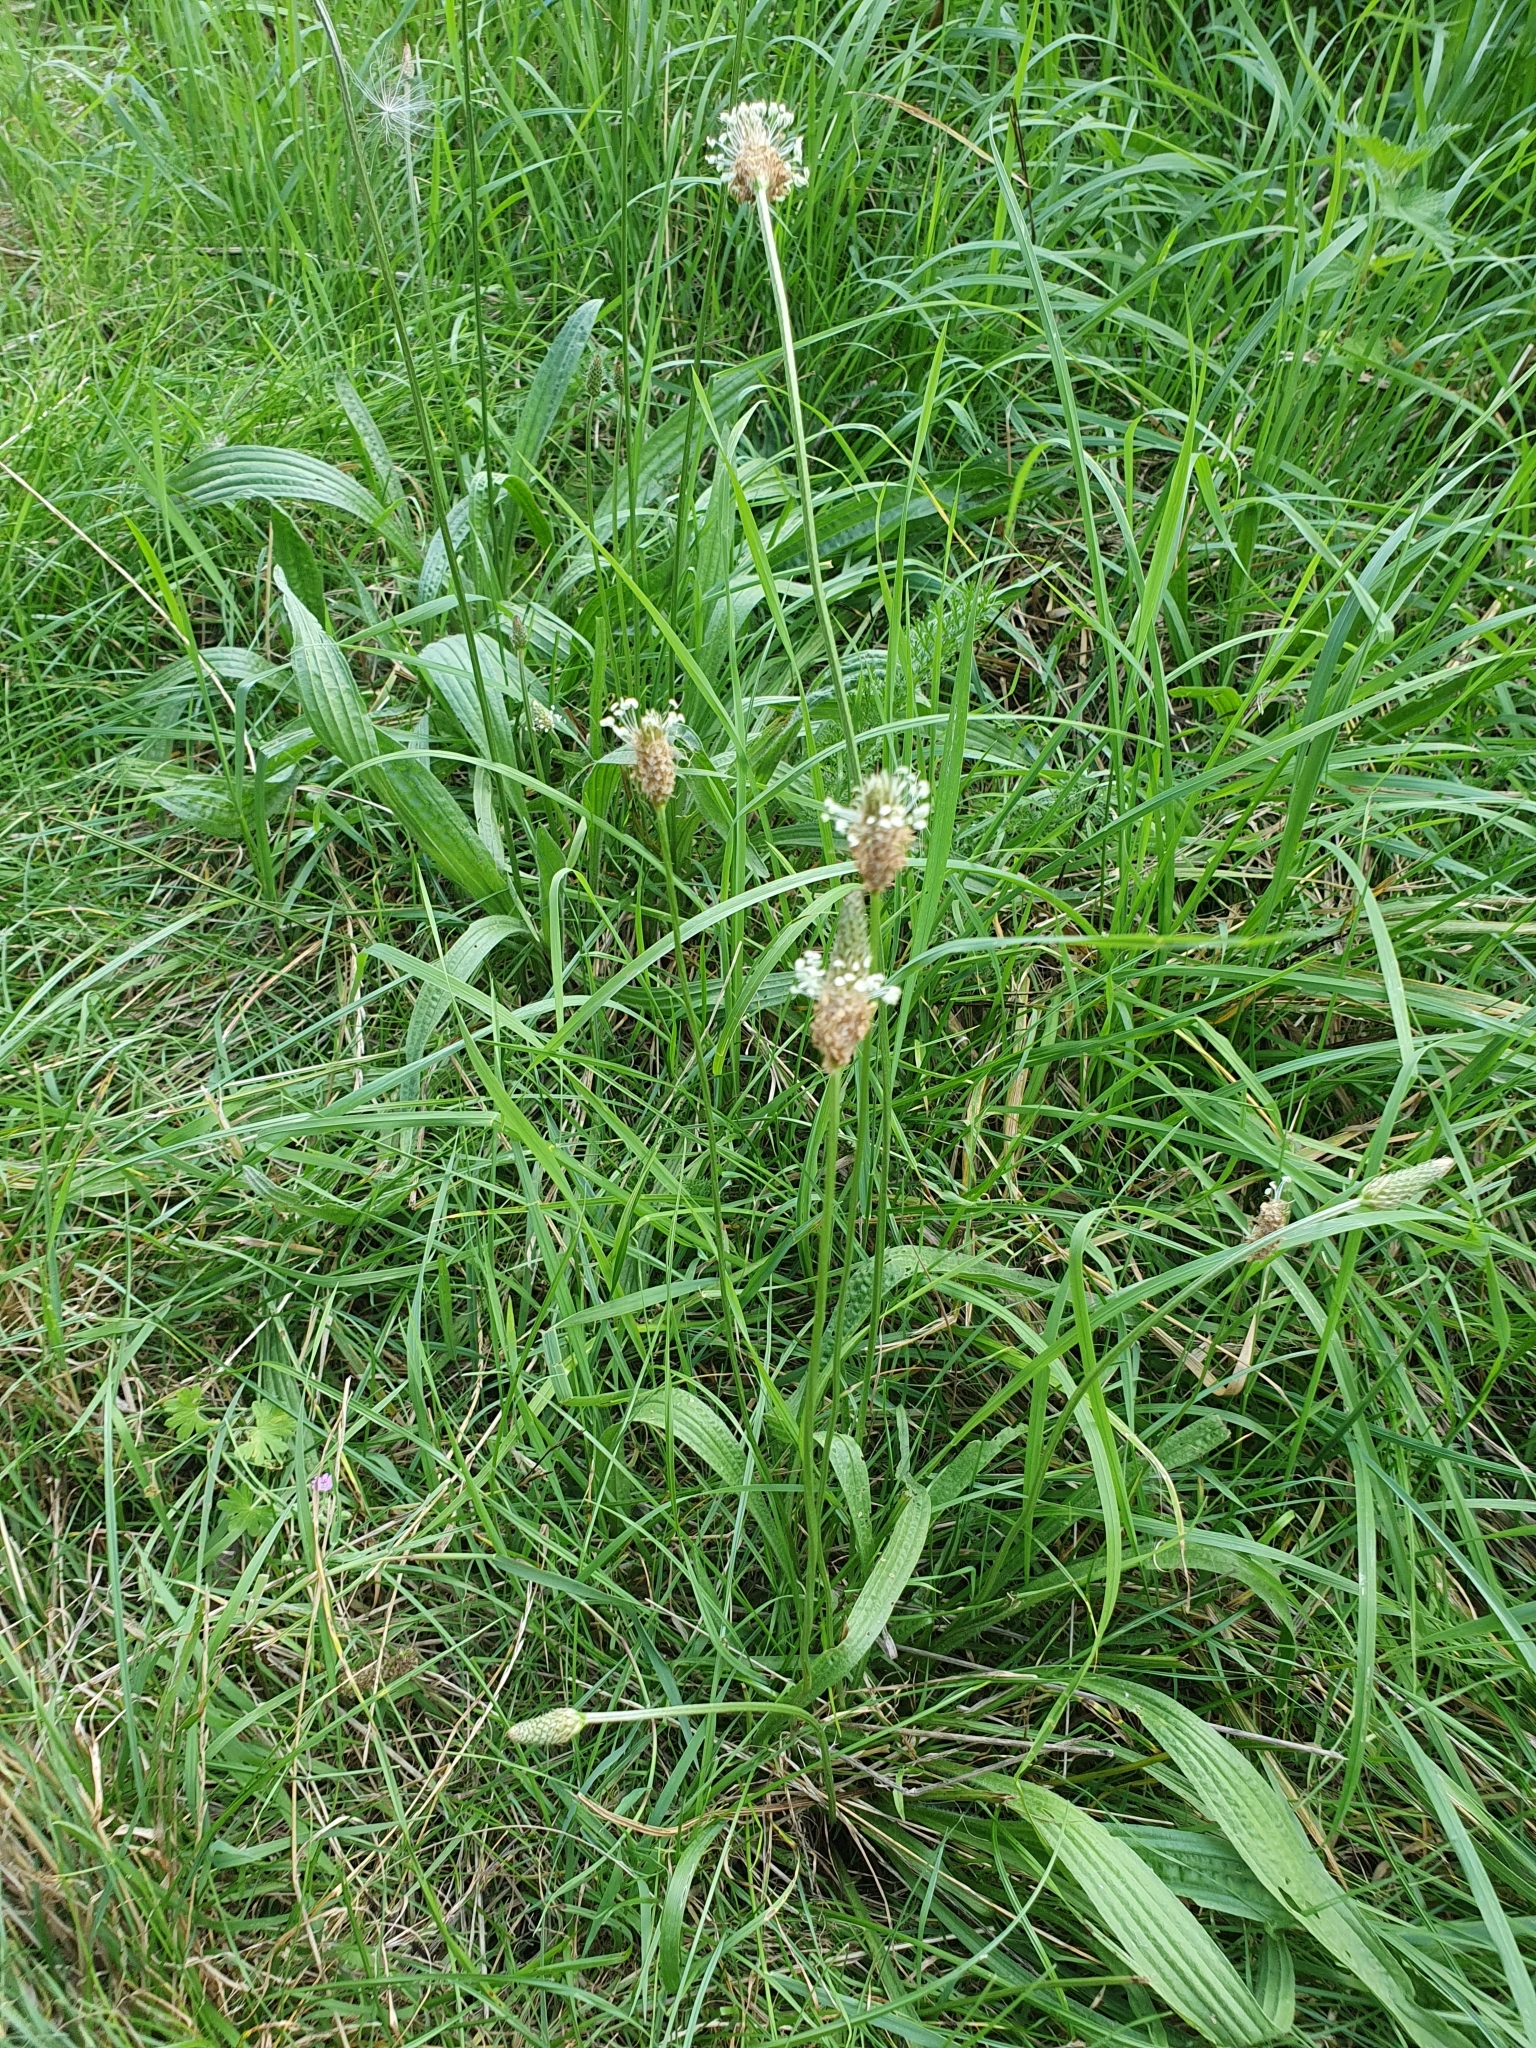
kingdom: Plantae
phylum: Tracheophyta
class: Magnoliopsida
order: Lamiales
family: Plantaginaceae
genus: Plantago
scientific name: Plantago lanceolata
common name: Ribwort plantain
